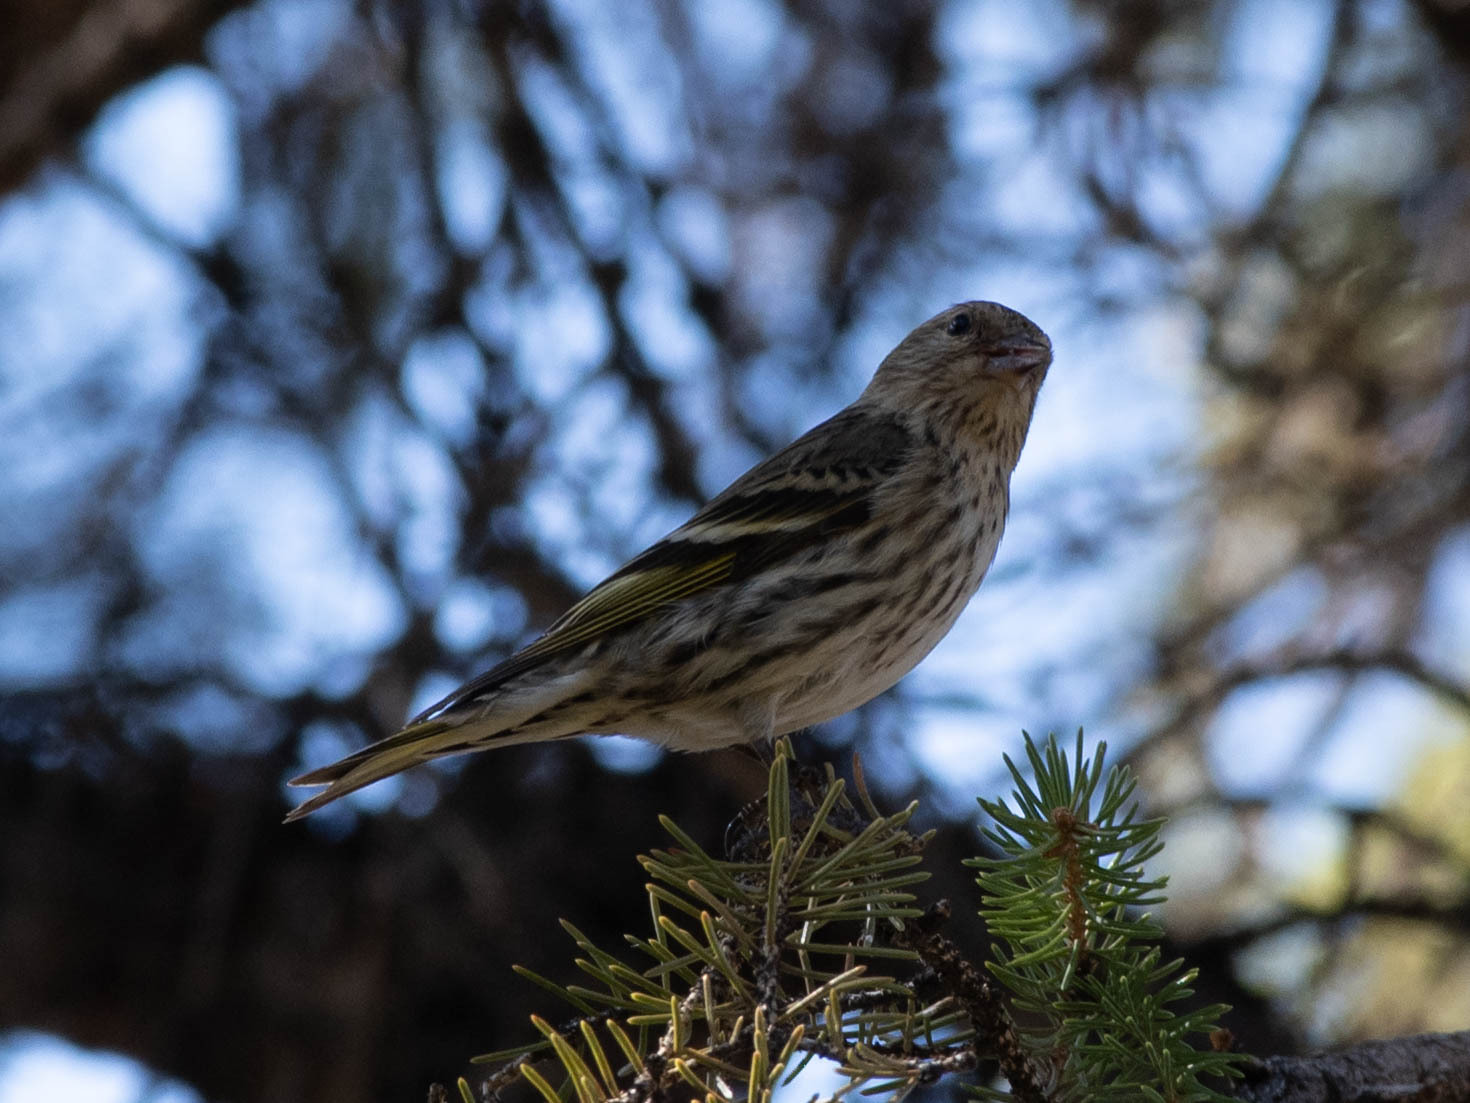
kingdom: Animalia
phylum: Chordata
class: Aves
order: Passeriformes
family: Fringillidae
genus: Spinus
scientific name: Spinus pinus
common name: Pine siskin
